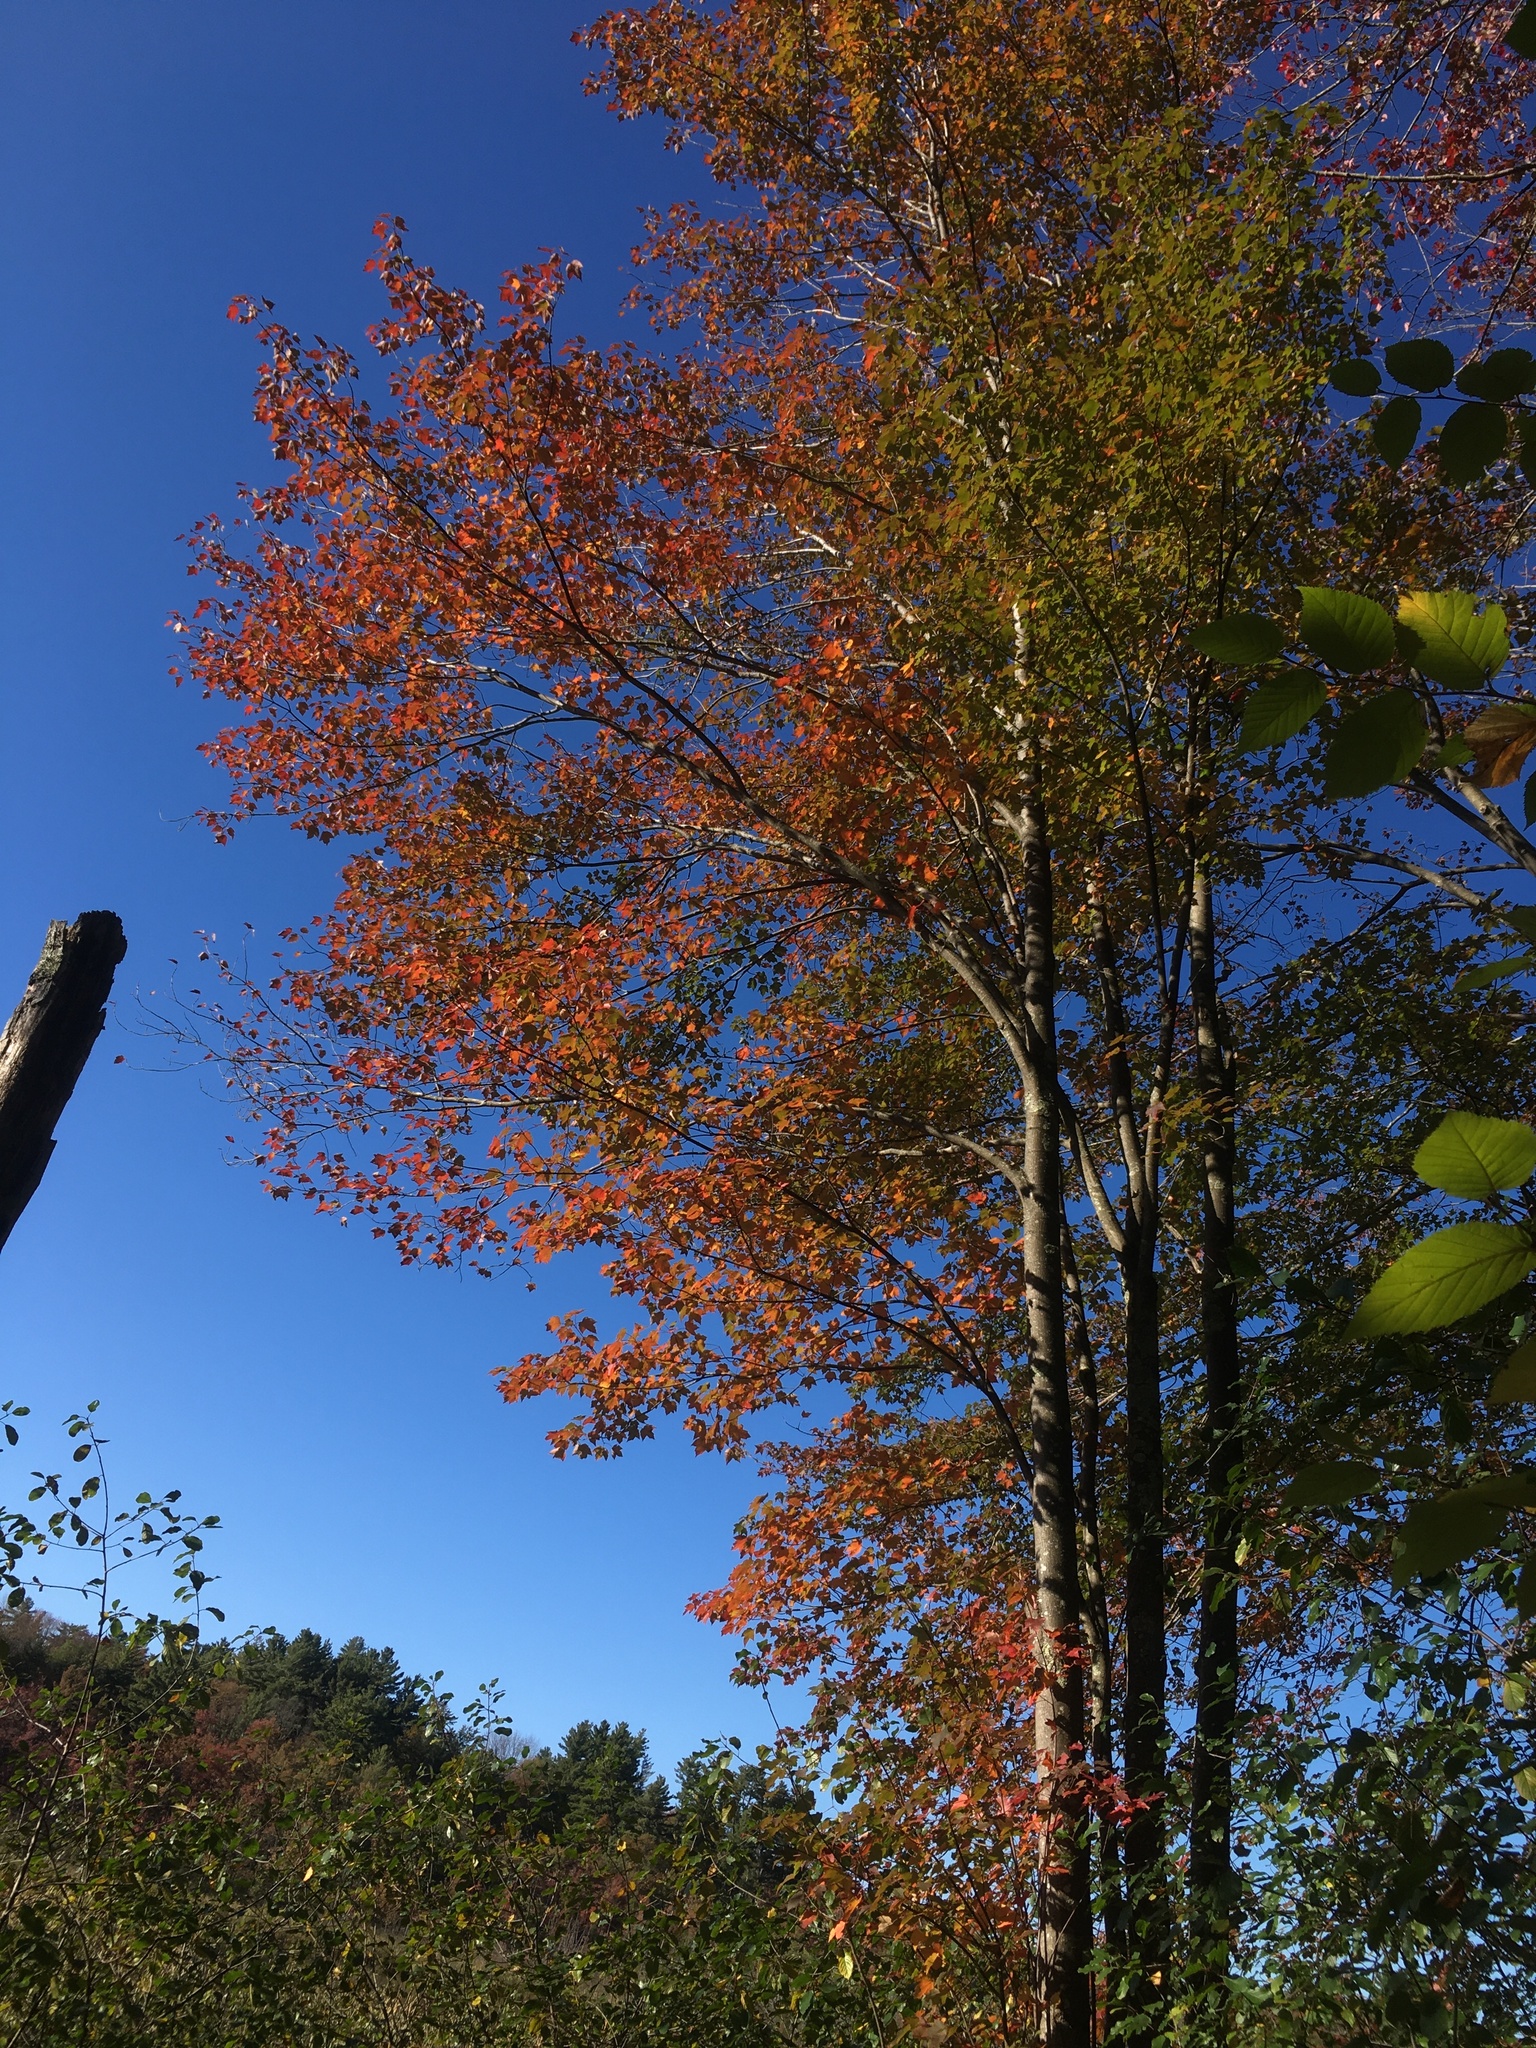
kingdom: Plantae
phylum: Tracheophyta
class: Magnoliopsida
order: Sapindales
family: Sapindaceae
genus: Acer
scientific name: Acer rubrum
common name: Red maple
